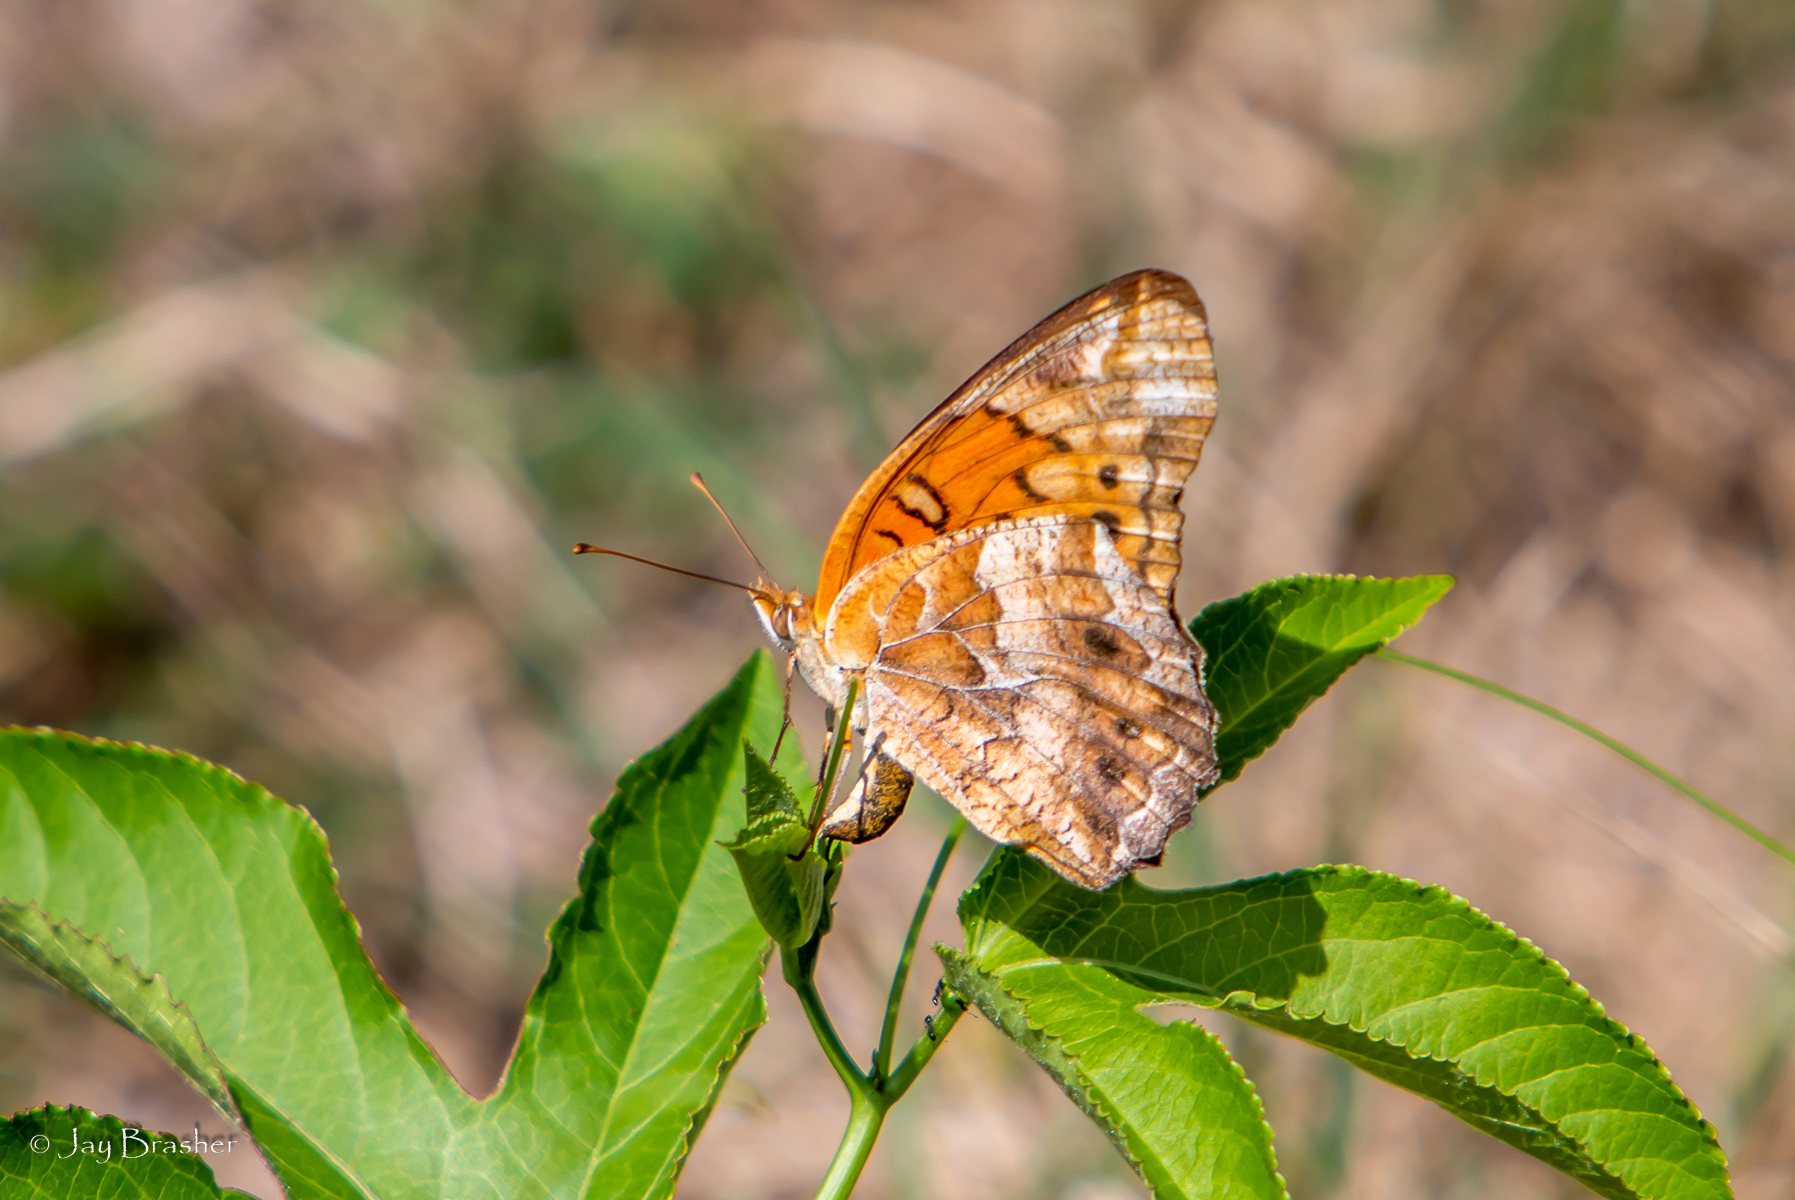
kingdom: Animalia
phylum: Arthropoda
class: Insecta
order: Lepidoptera
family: Nymphalidae
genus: Euptoieta
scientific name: Euptoieta claudia
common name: Variegated fritillary
